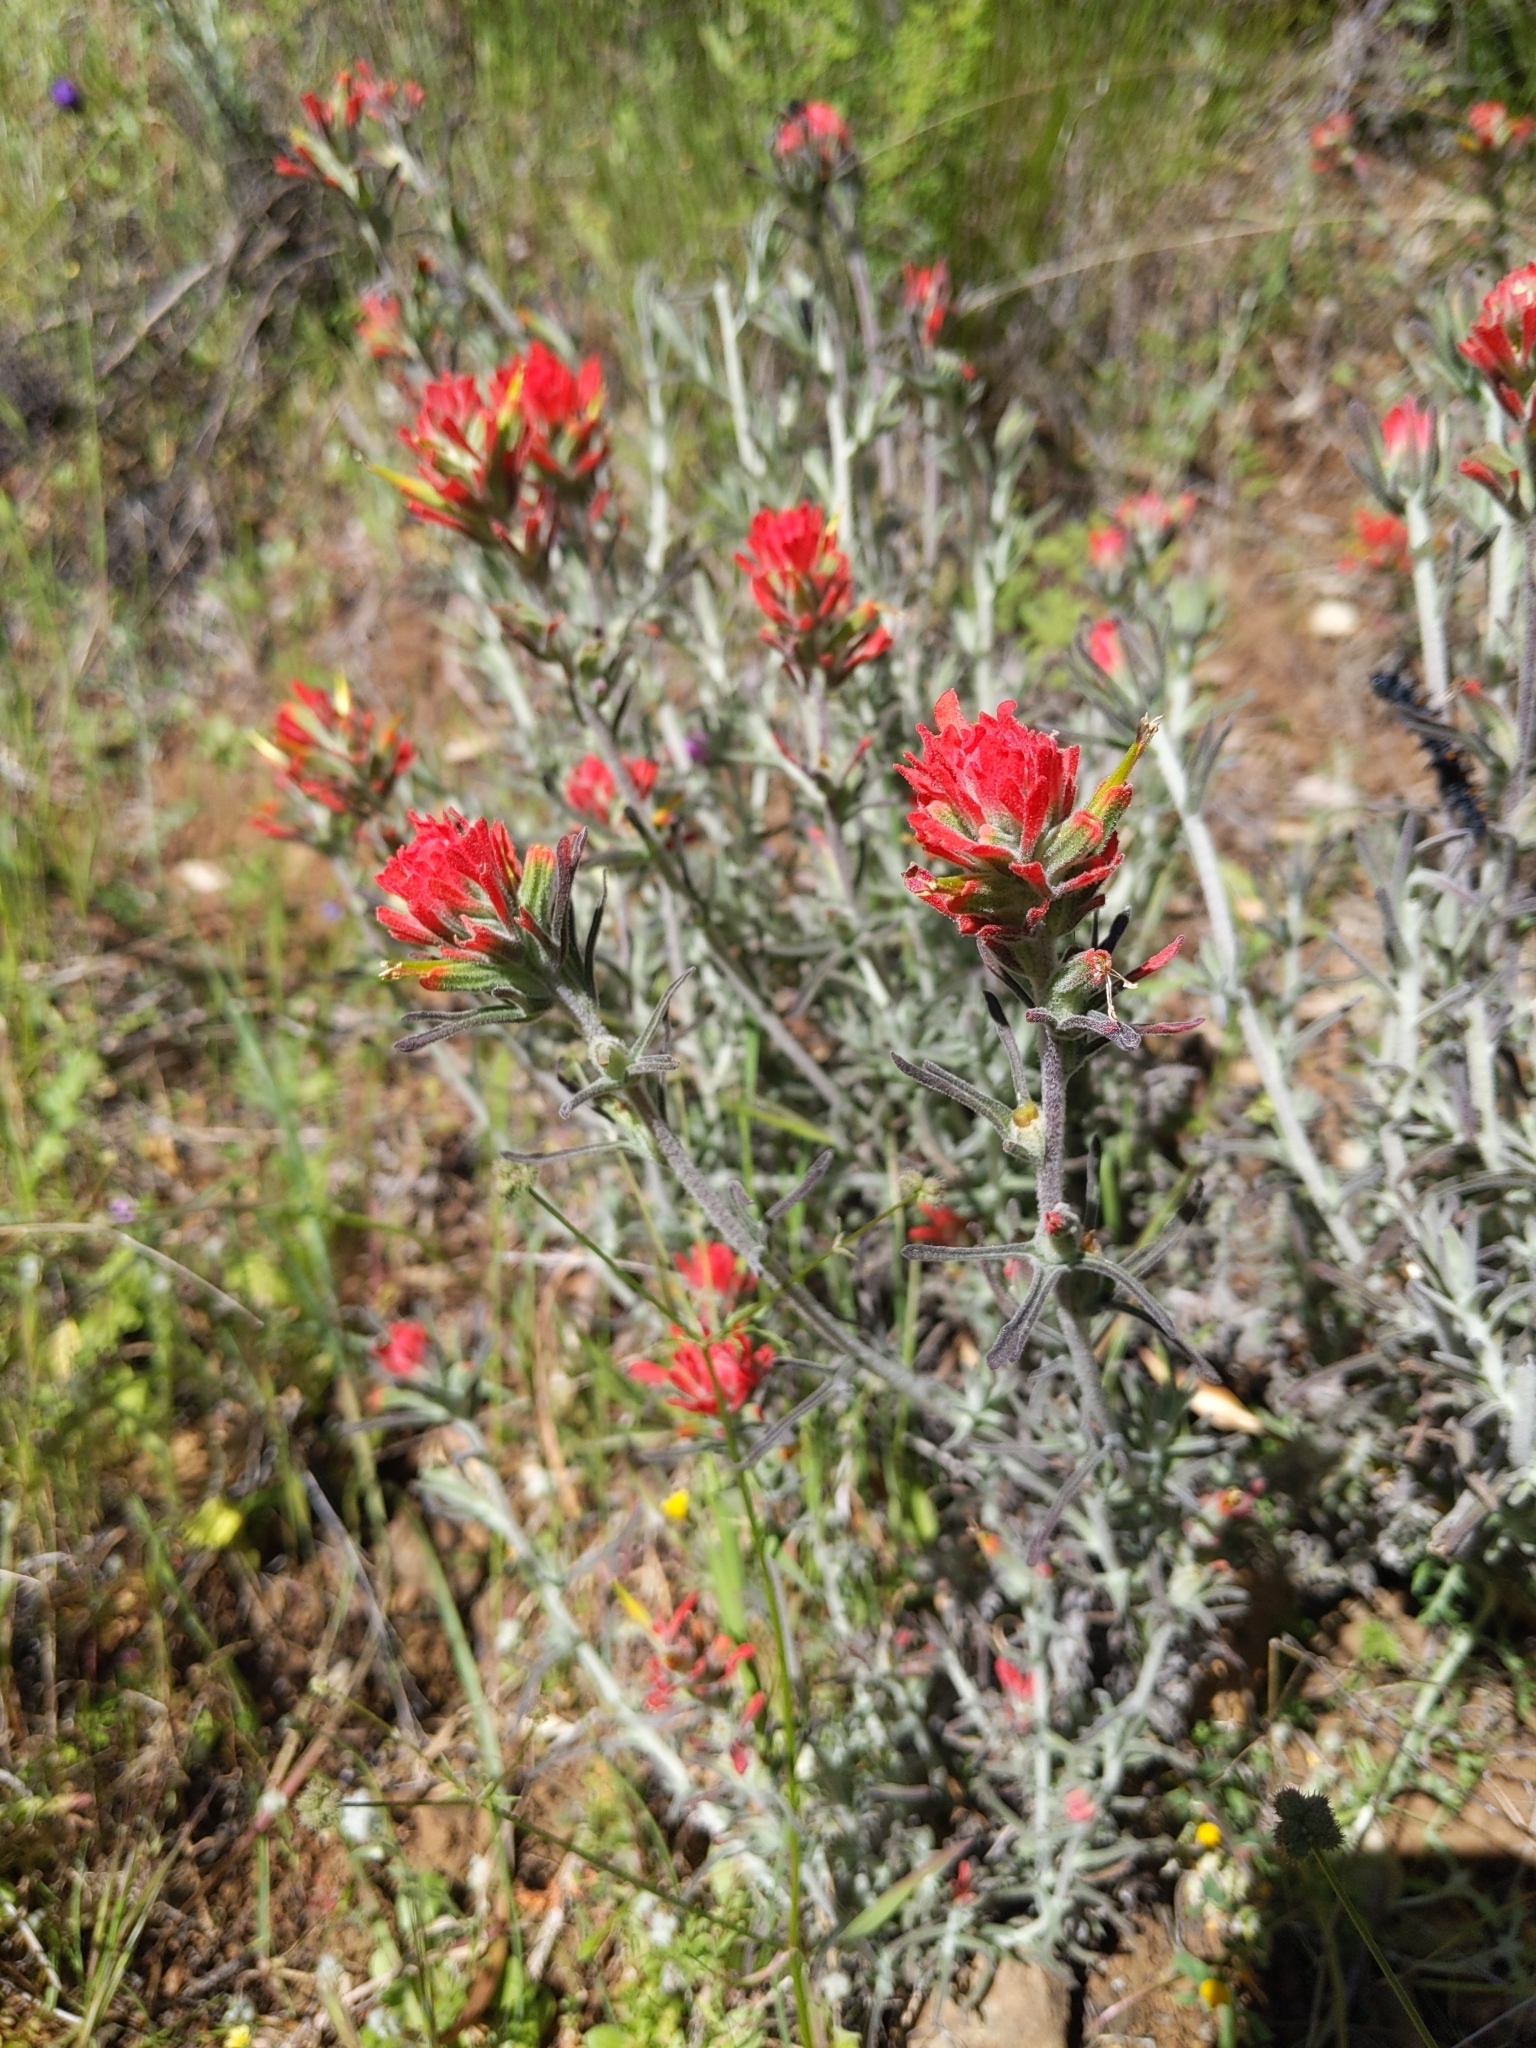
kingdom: Plantae
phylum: Tracheophyta
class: Magnoliopsida
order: Lamiales
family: Orobanchaceae
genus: Castilleja
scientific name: Castilleja foliolosa
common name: Woolly indian paintbrush
